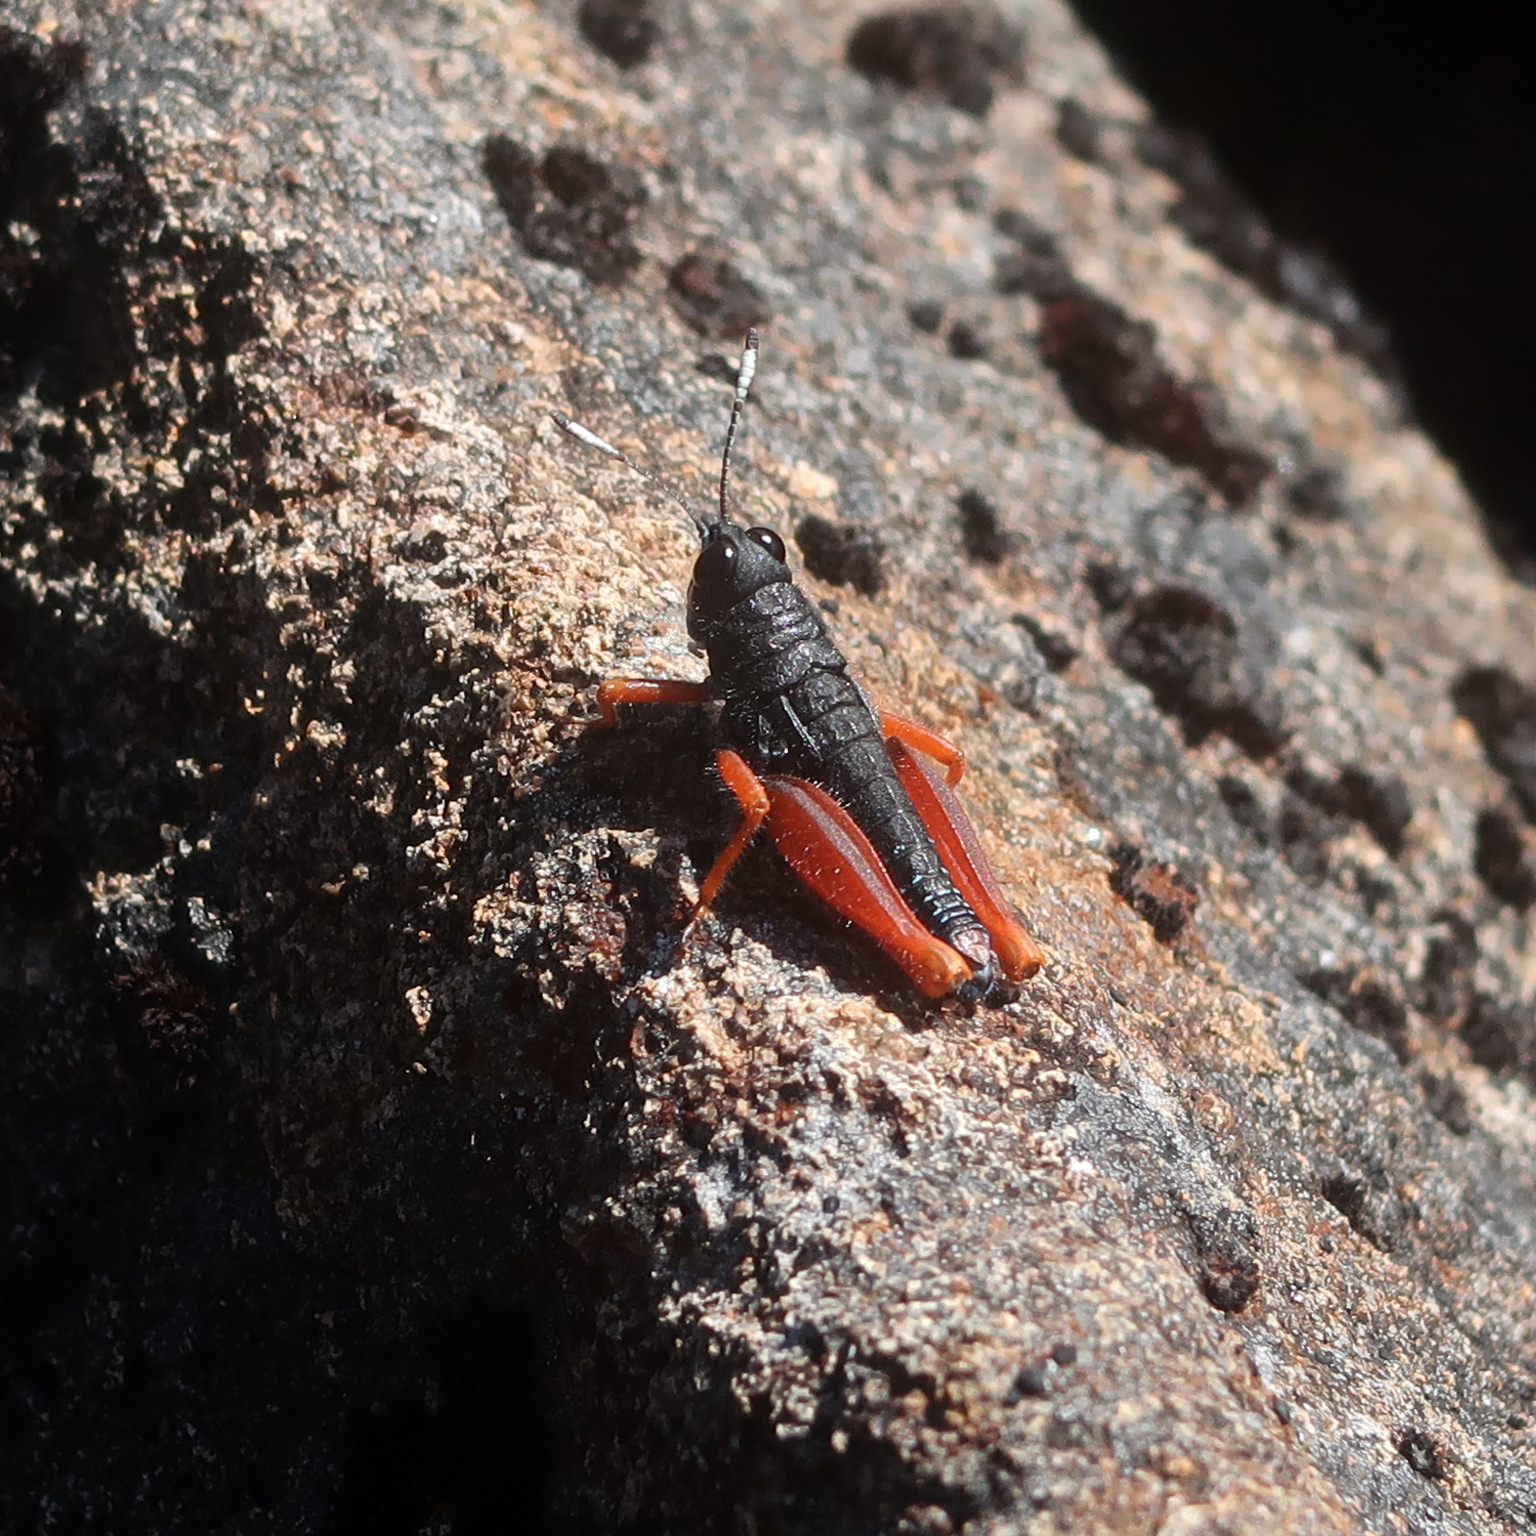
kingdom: Animalia
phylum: Arthropoda
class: Insecta
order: Orthoptera
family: Acrididae
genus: Tasmanalpina
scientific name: Tasmanalpina clavata
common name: Tasmanian velvet grasshopper
